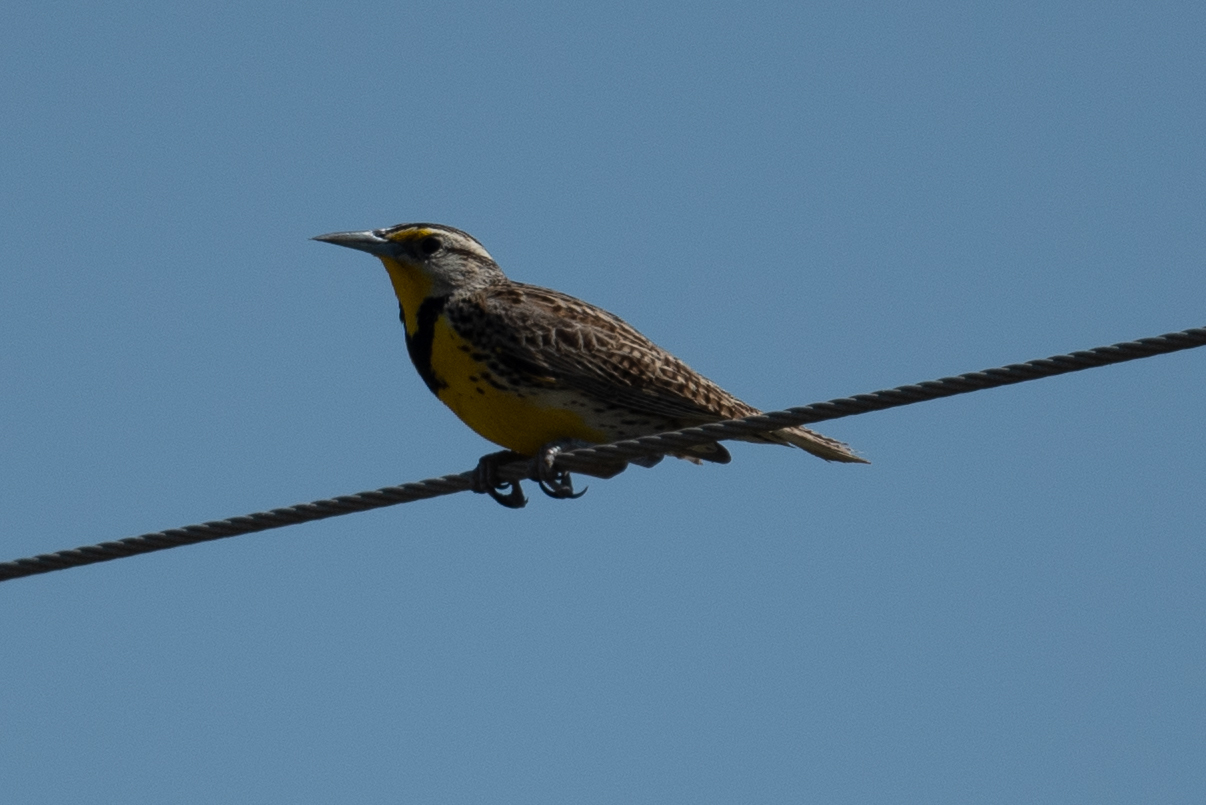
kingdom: Animalia
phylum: Chordata
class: Aves
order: Passeriformes
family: Icteridae
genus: Sturnella
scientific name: Sturnella neglecta
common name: Western meadowlark
